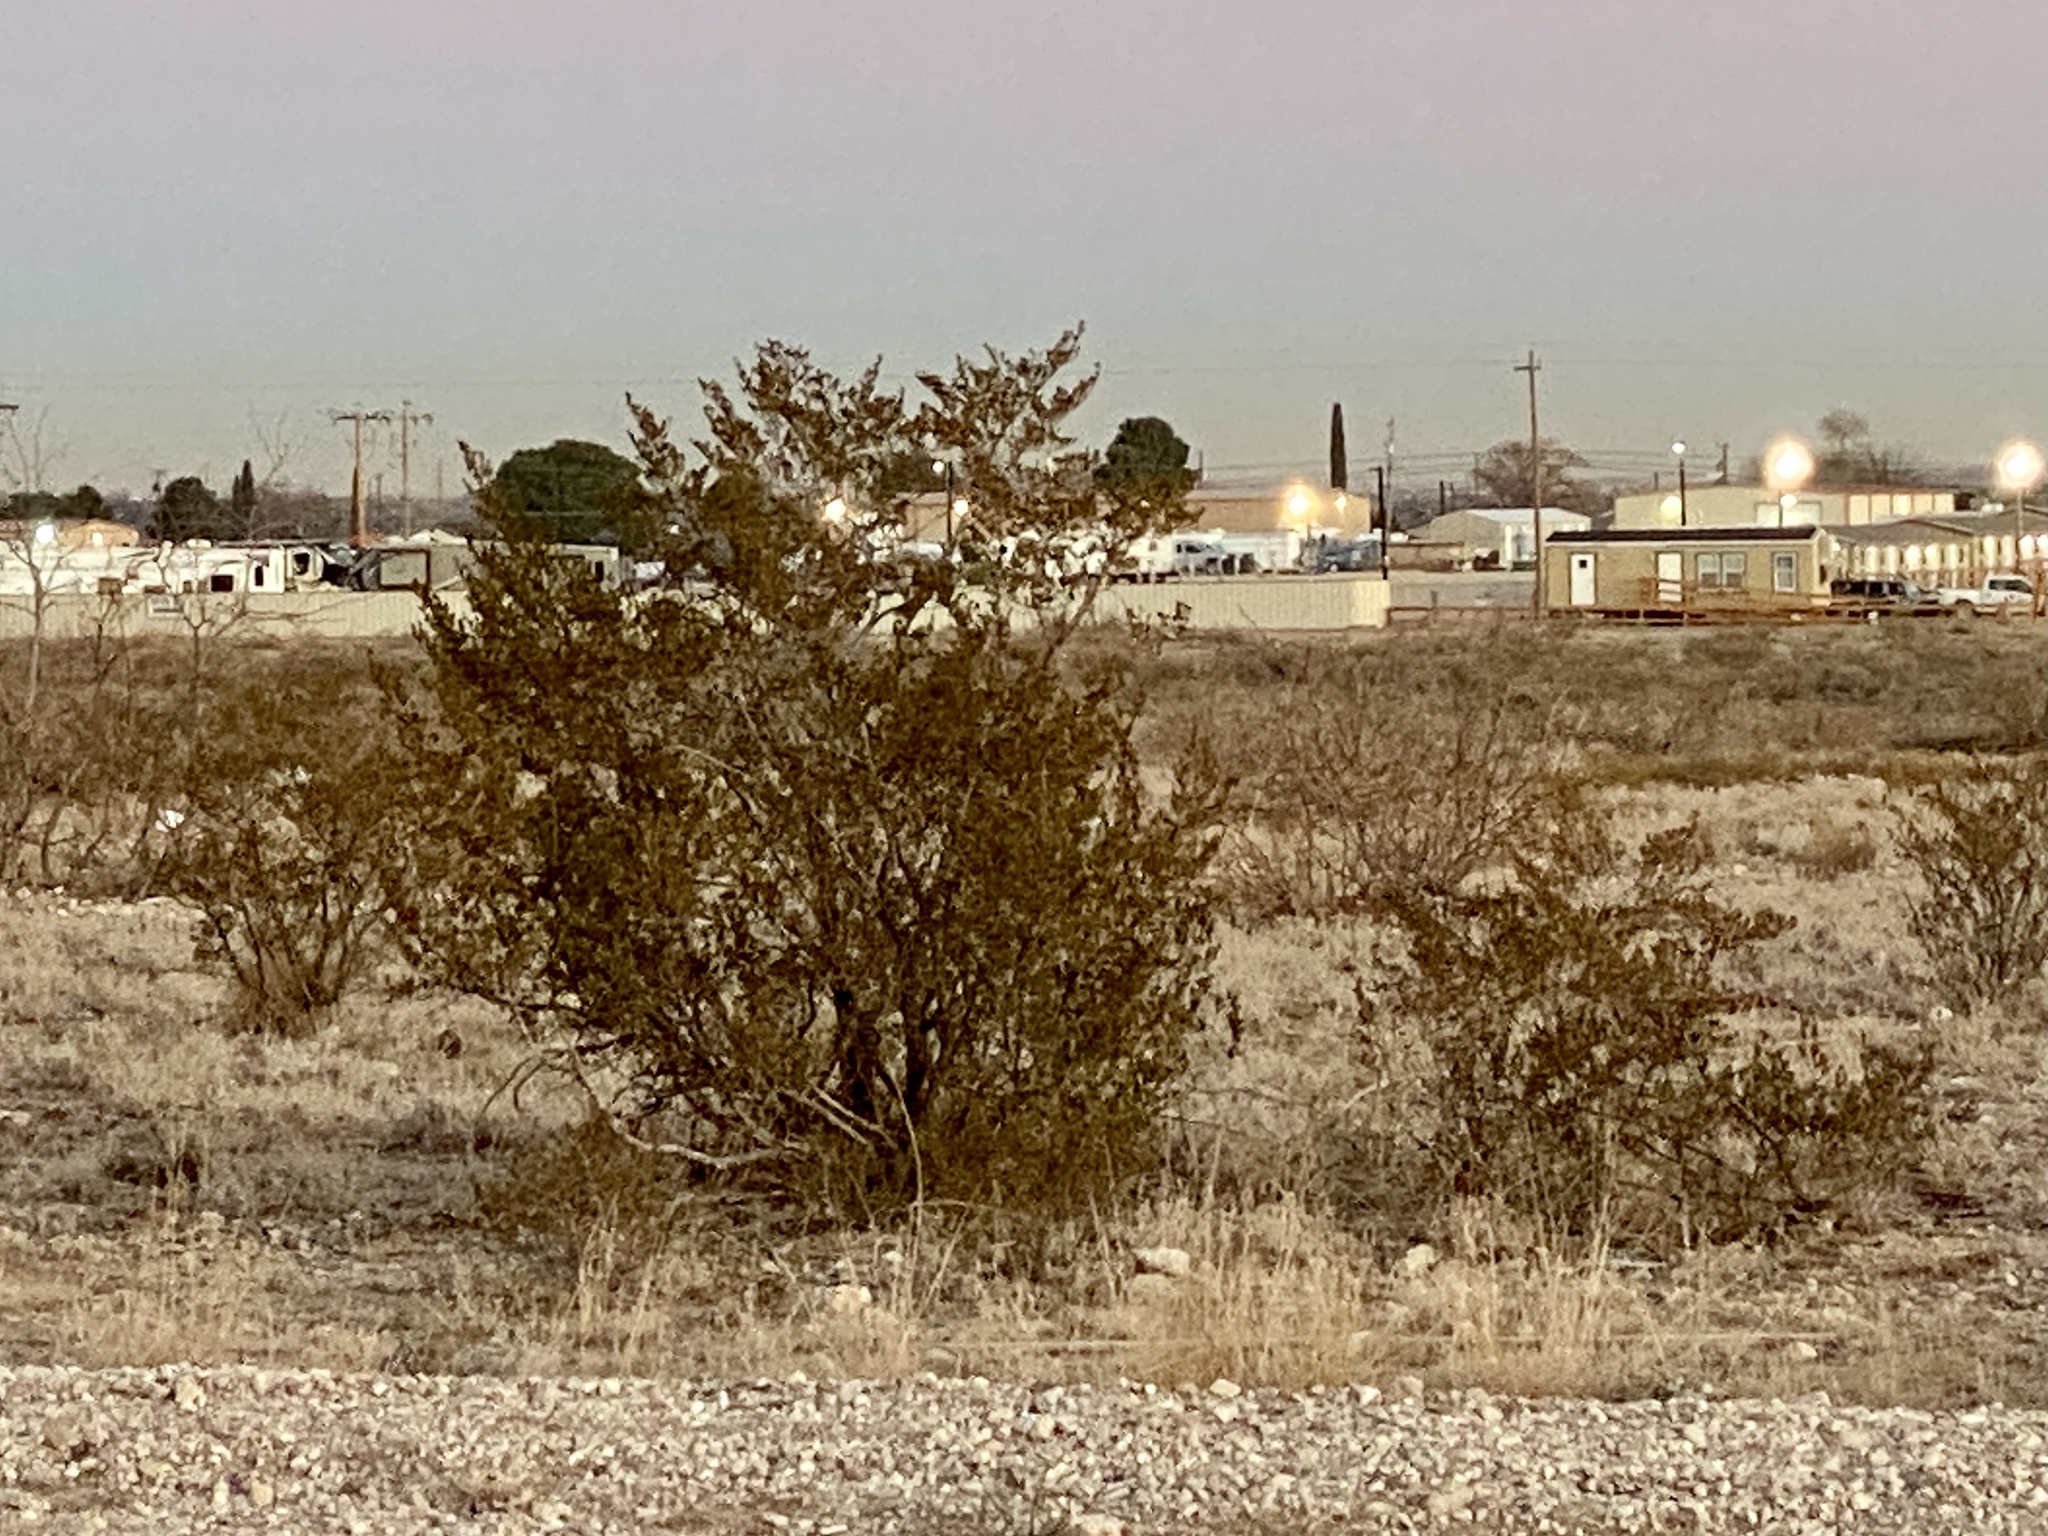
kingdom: Plantae
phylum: Tracheophyta
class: Magnoliopsida
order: Zygophyllales
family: Zygophyllaceae
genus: Larrea
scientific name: Larrea tridentata
